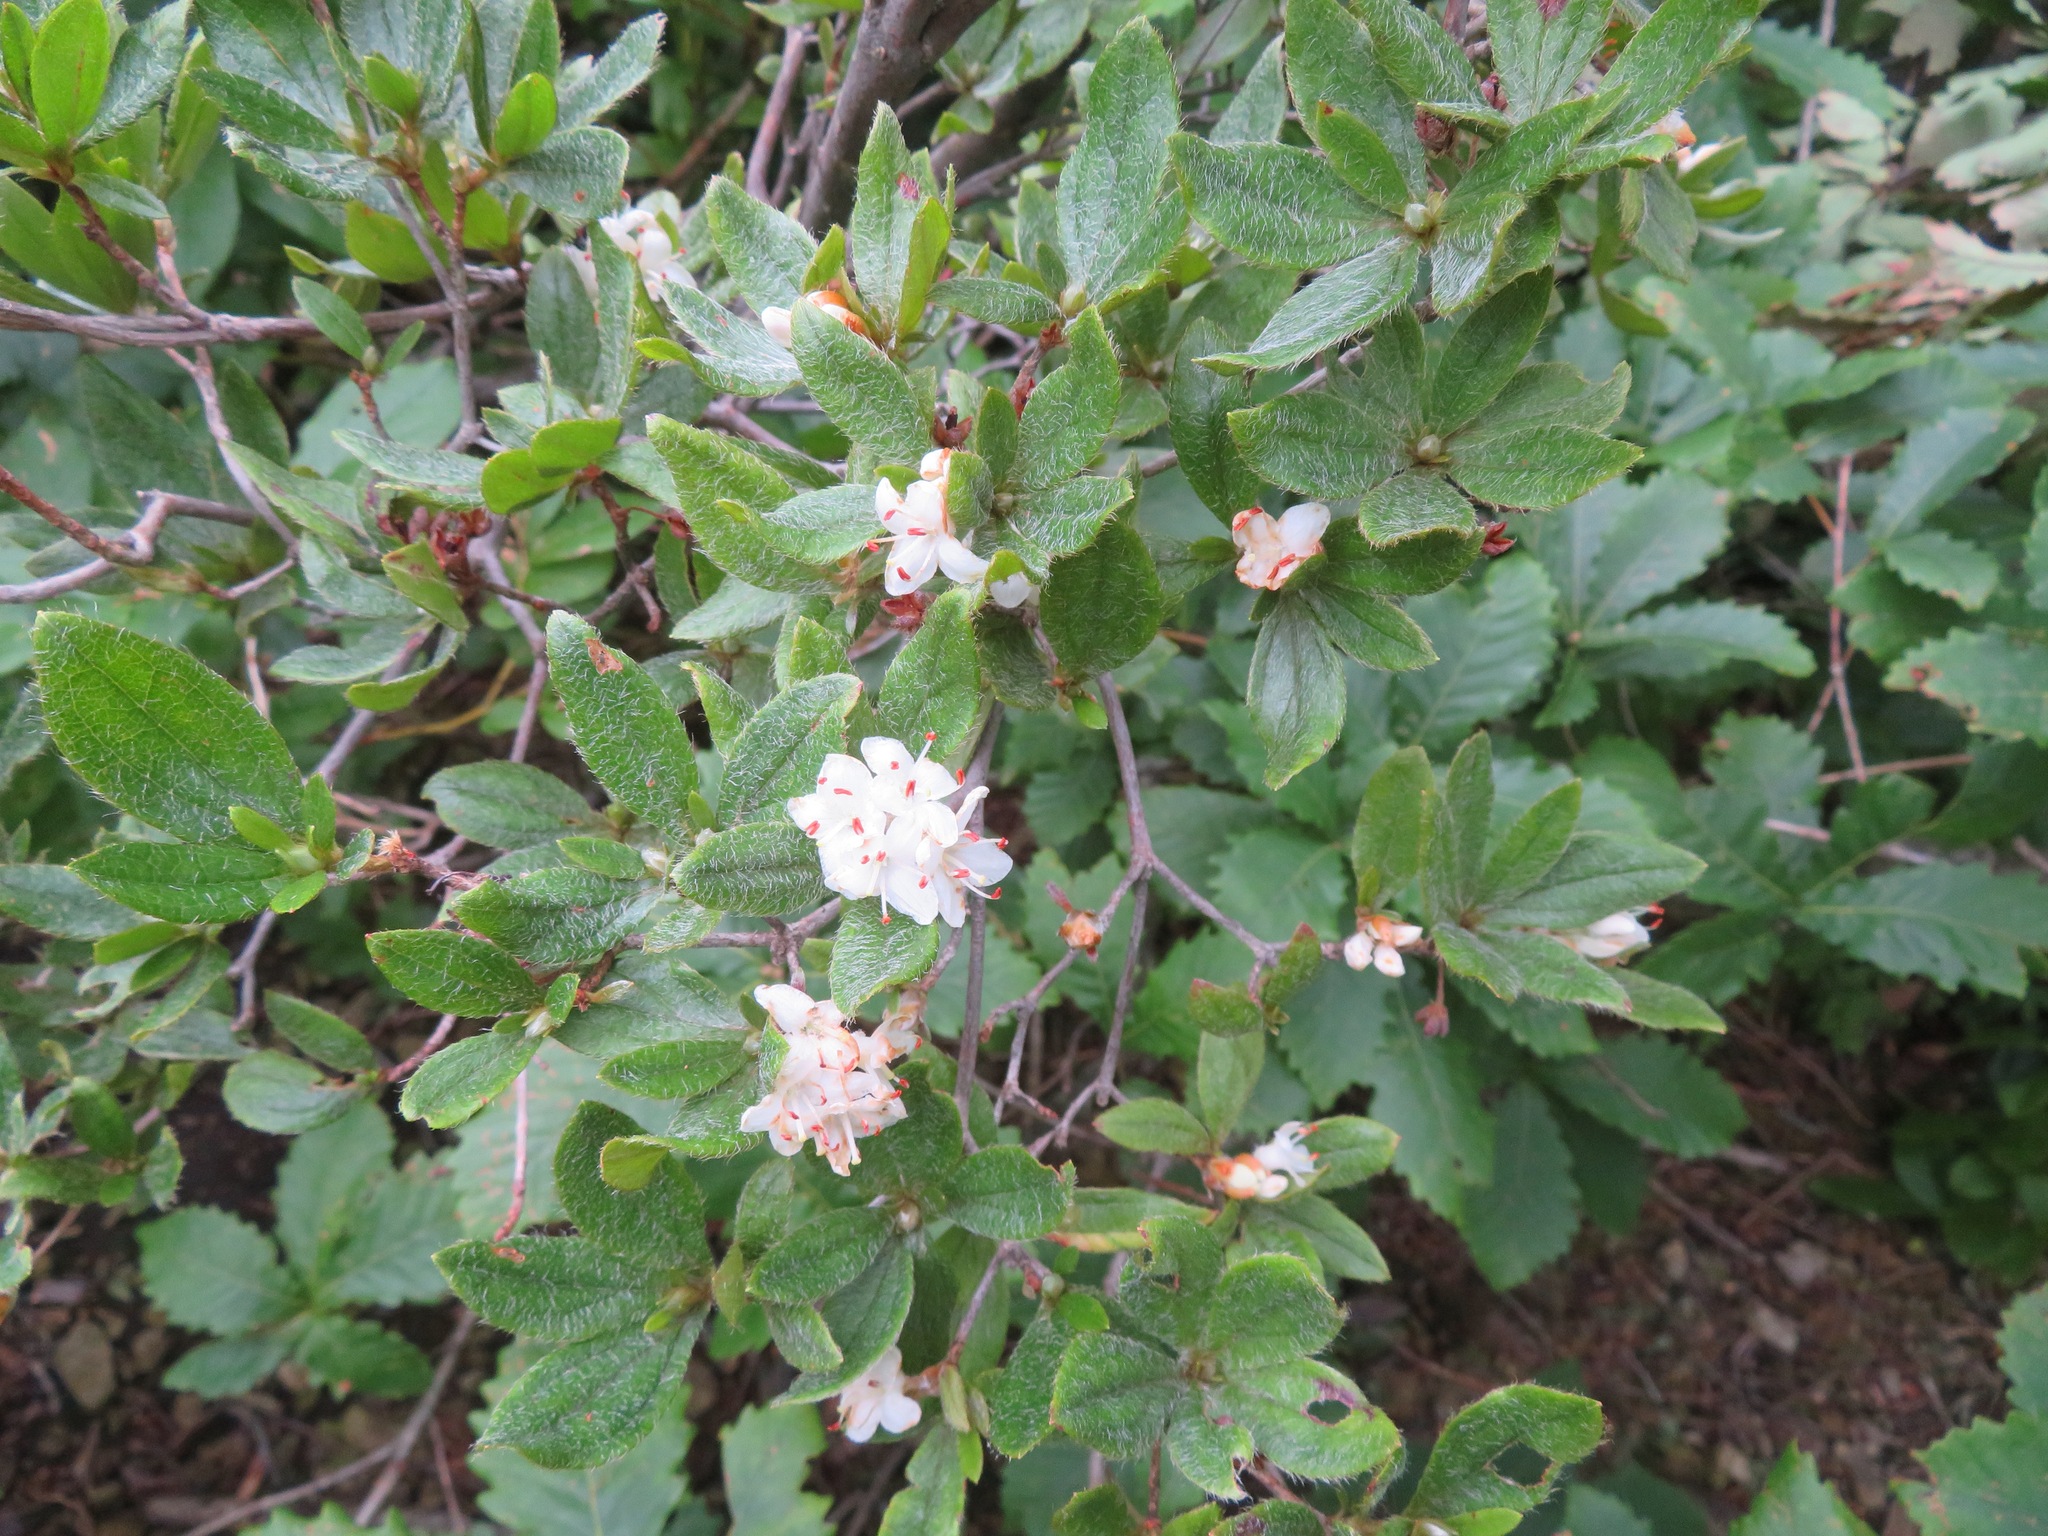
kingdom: Plantae
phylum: Tracheophyta
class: Magnoliopsida
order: Ericales
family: Ericaceae
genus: Rhododendron
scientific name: Rhododendron tschonoskii
